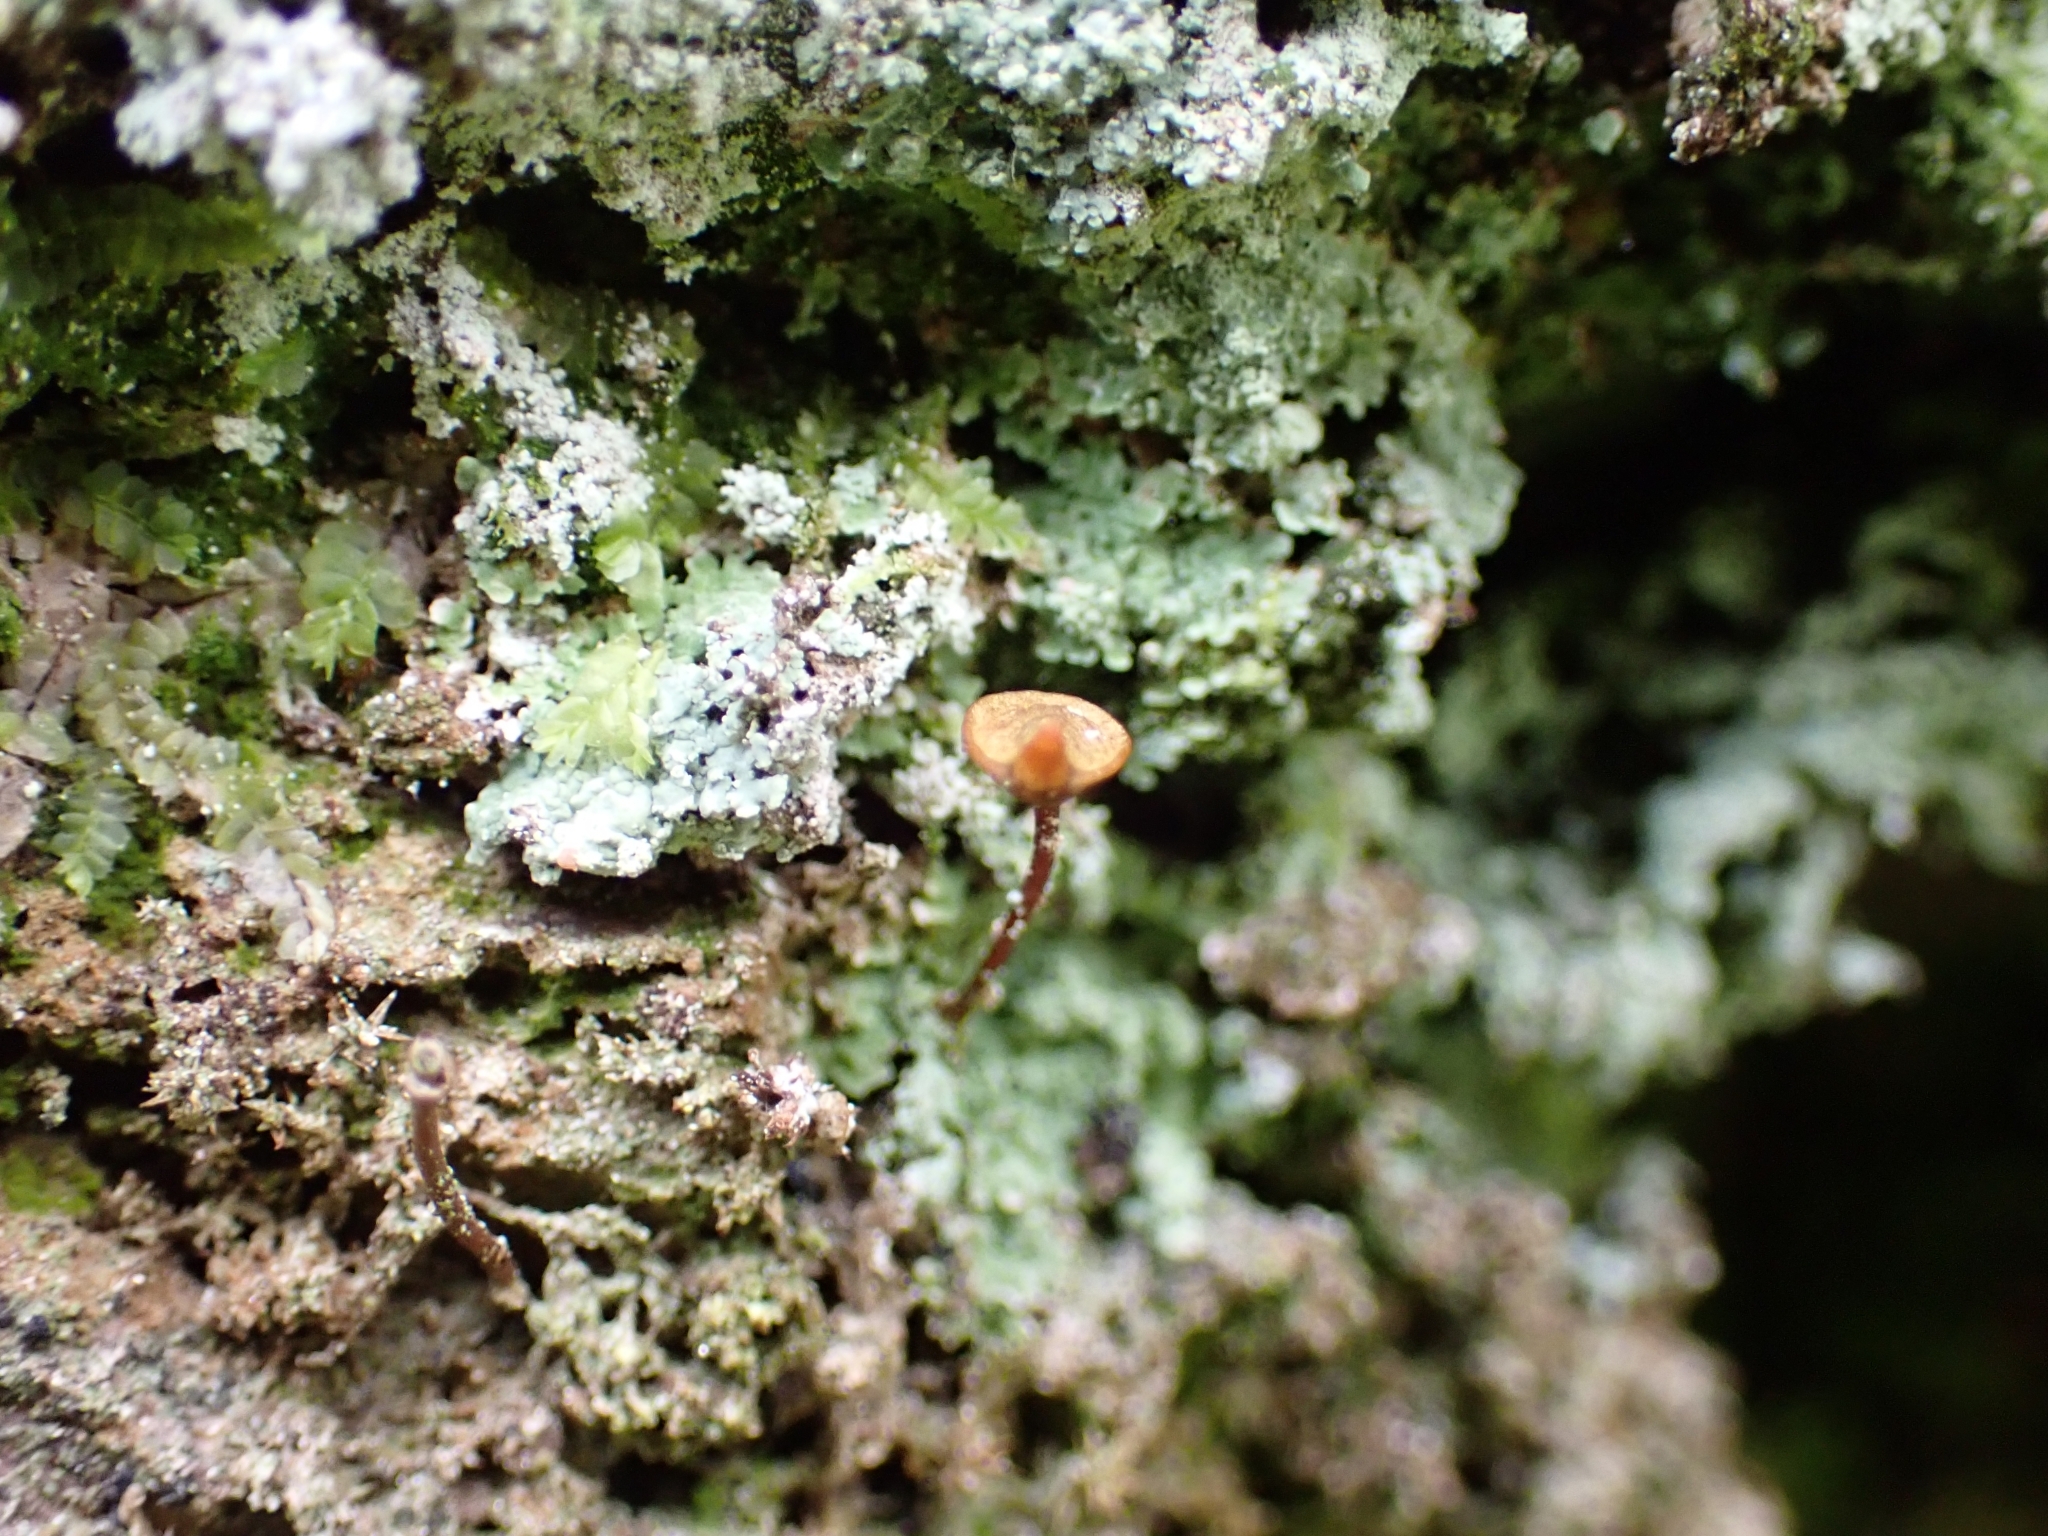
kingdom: Plantae
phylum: Bryophyta
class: Bryopsida
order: Buxbaumiales
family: Buxbaumiaceae
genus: Buxbaumia
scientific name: Buxbaumia aphylla
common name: Brown shield-moss
